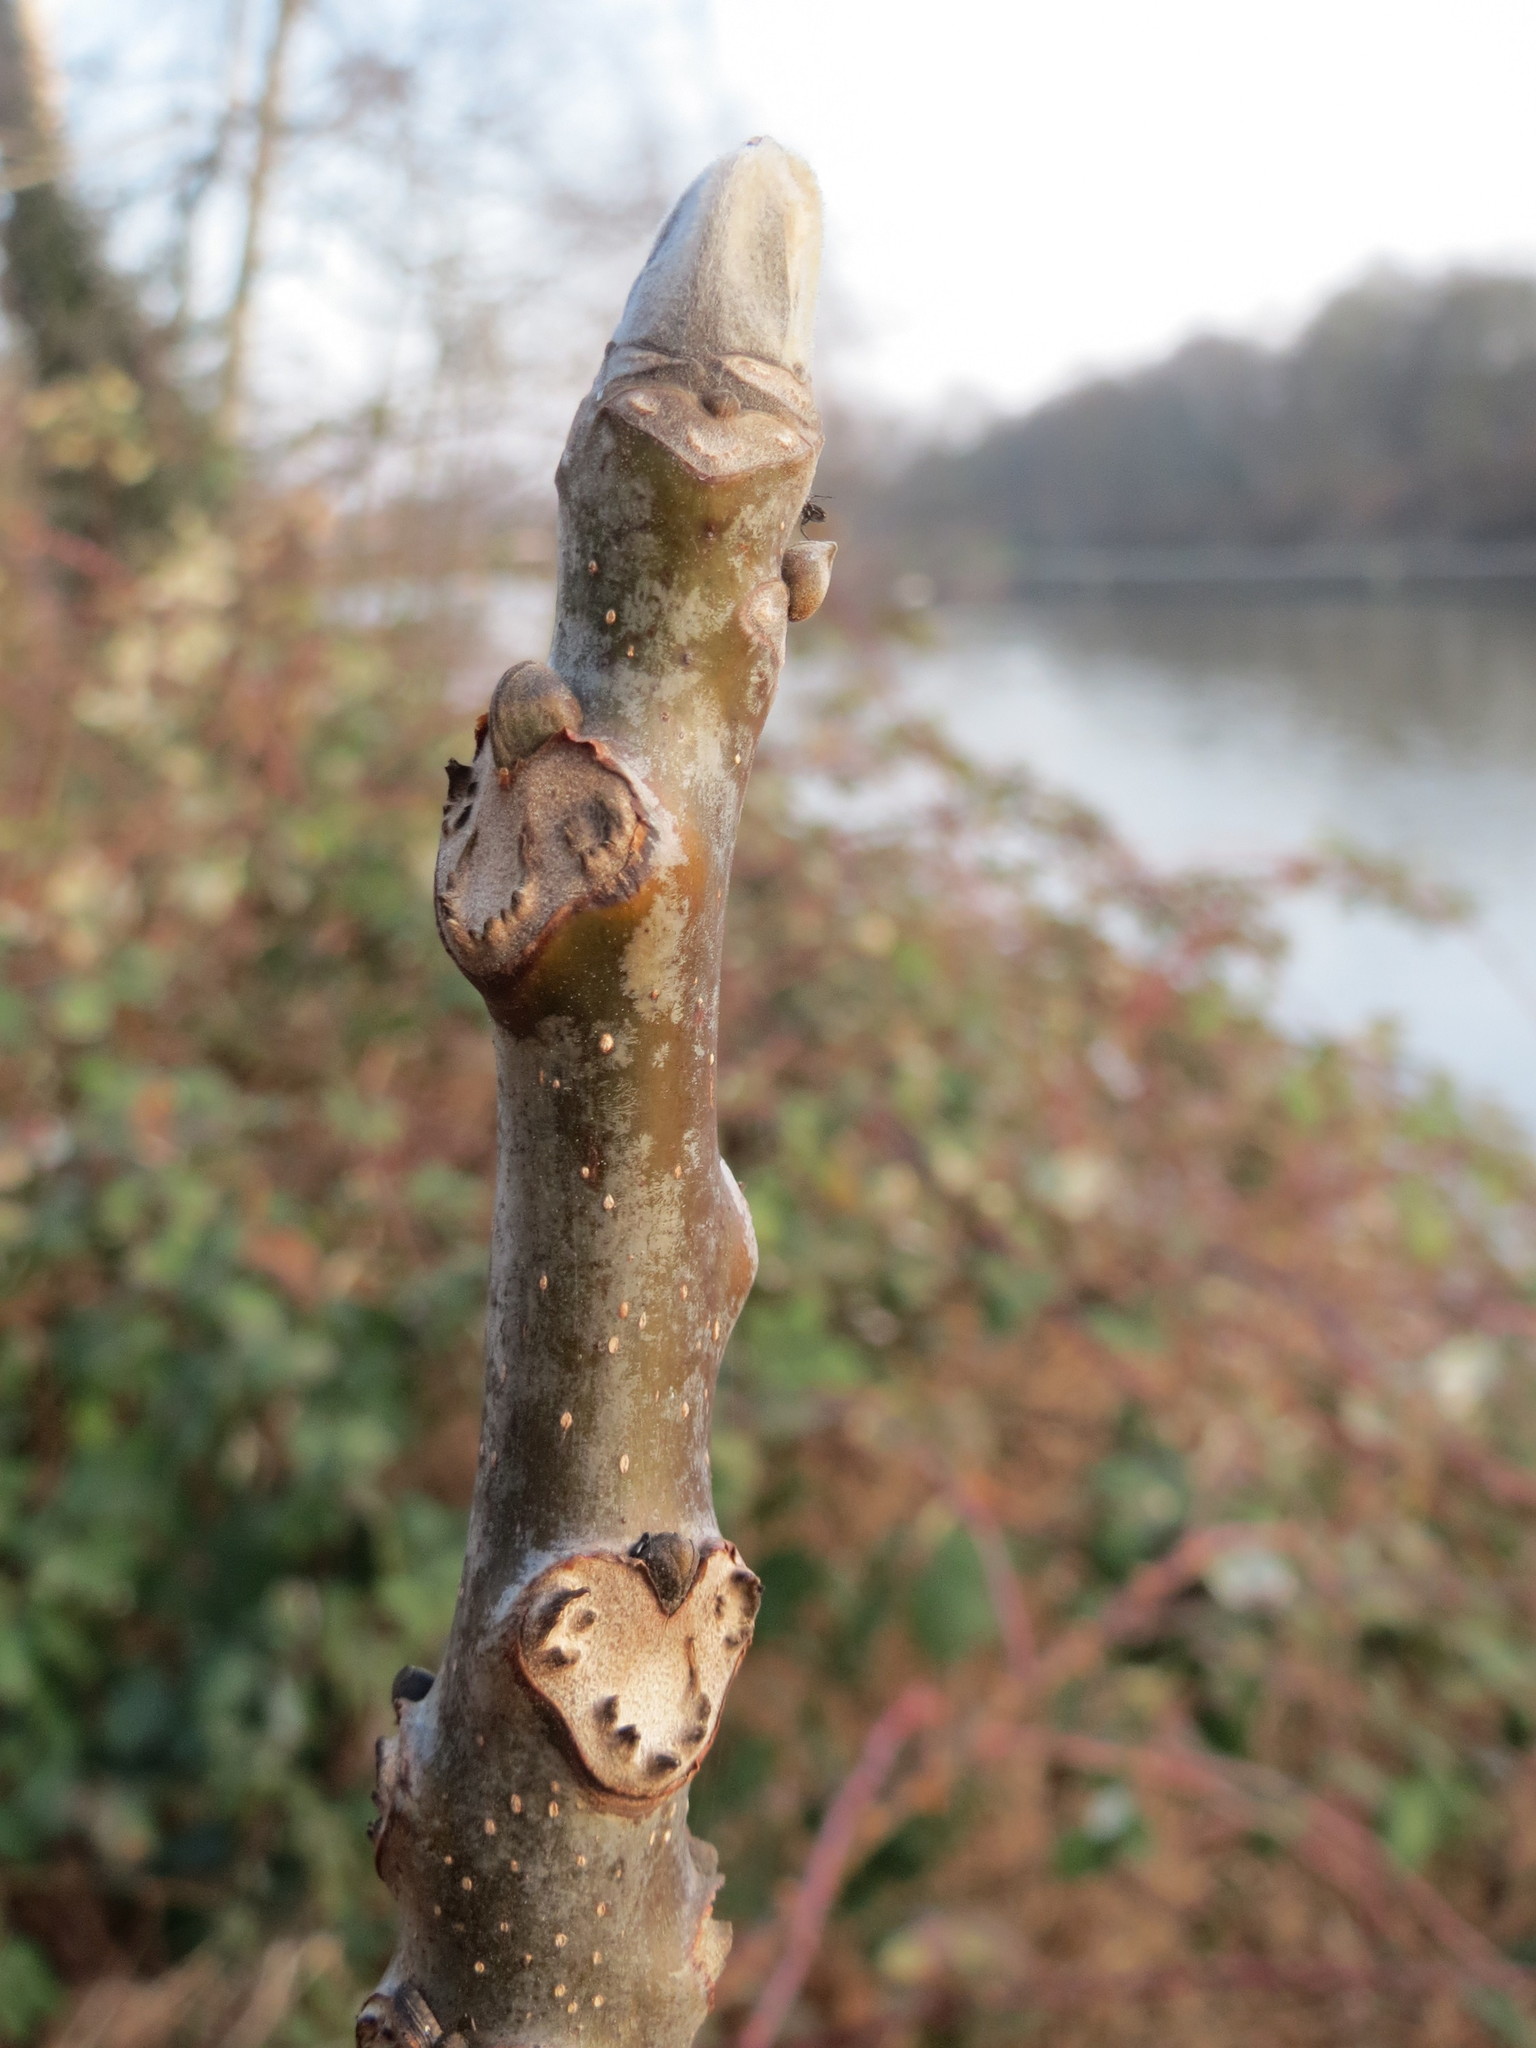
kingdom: Plantae
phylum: Tracheophyta
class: Magnoliopsida
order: Fagales
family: Juglandaceae
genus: Juglans
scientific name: Juglans regia
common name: Walnut
